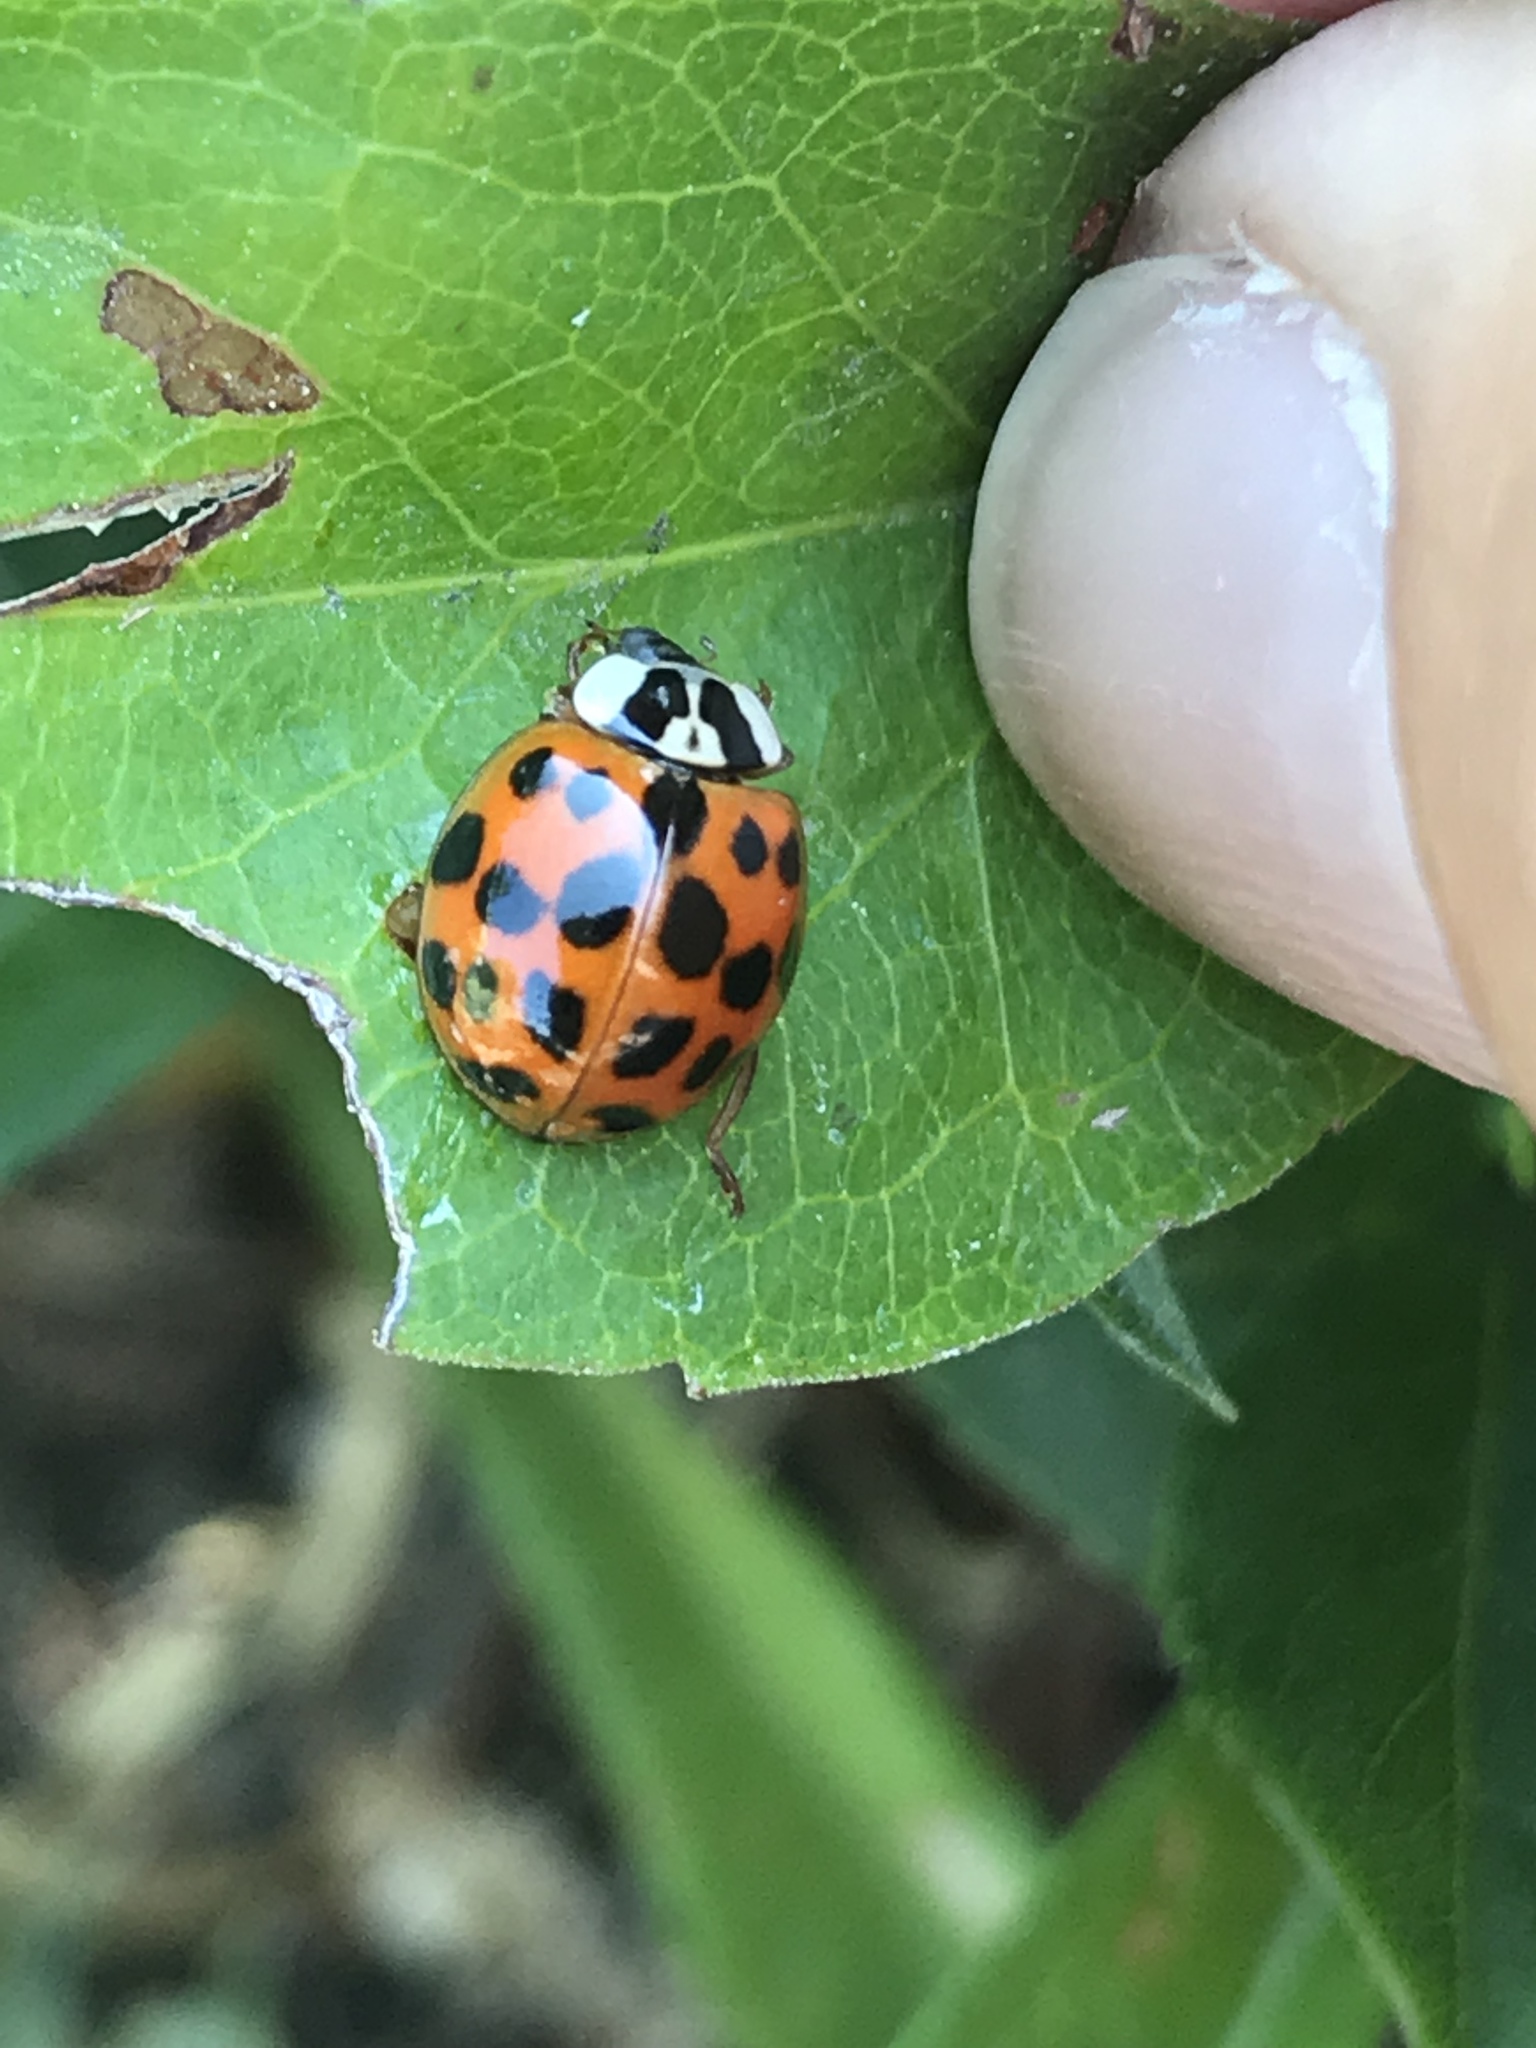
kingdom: Animalia
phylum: Arthropoda
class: Insecta
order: Coleoptera
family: Coccinellidae
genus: Harmonia
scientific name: Harmonia axyridis
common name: Harlequin ladybird
